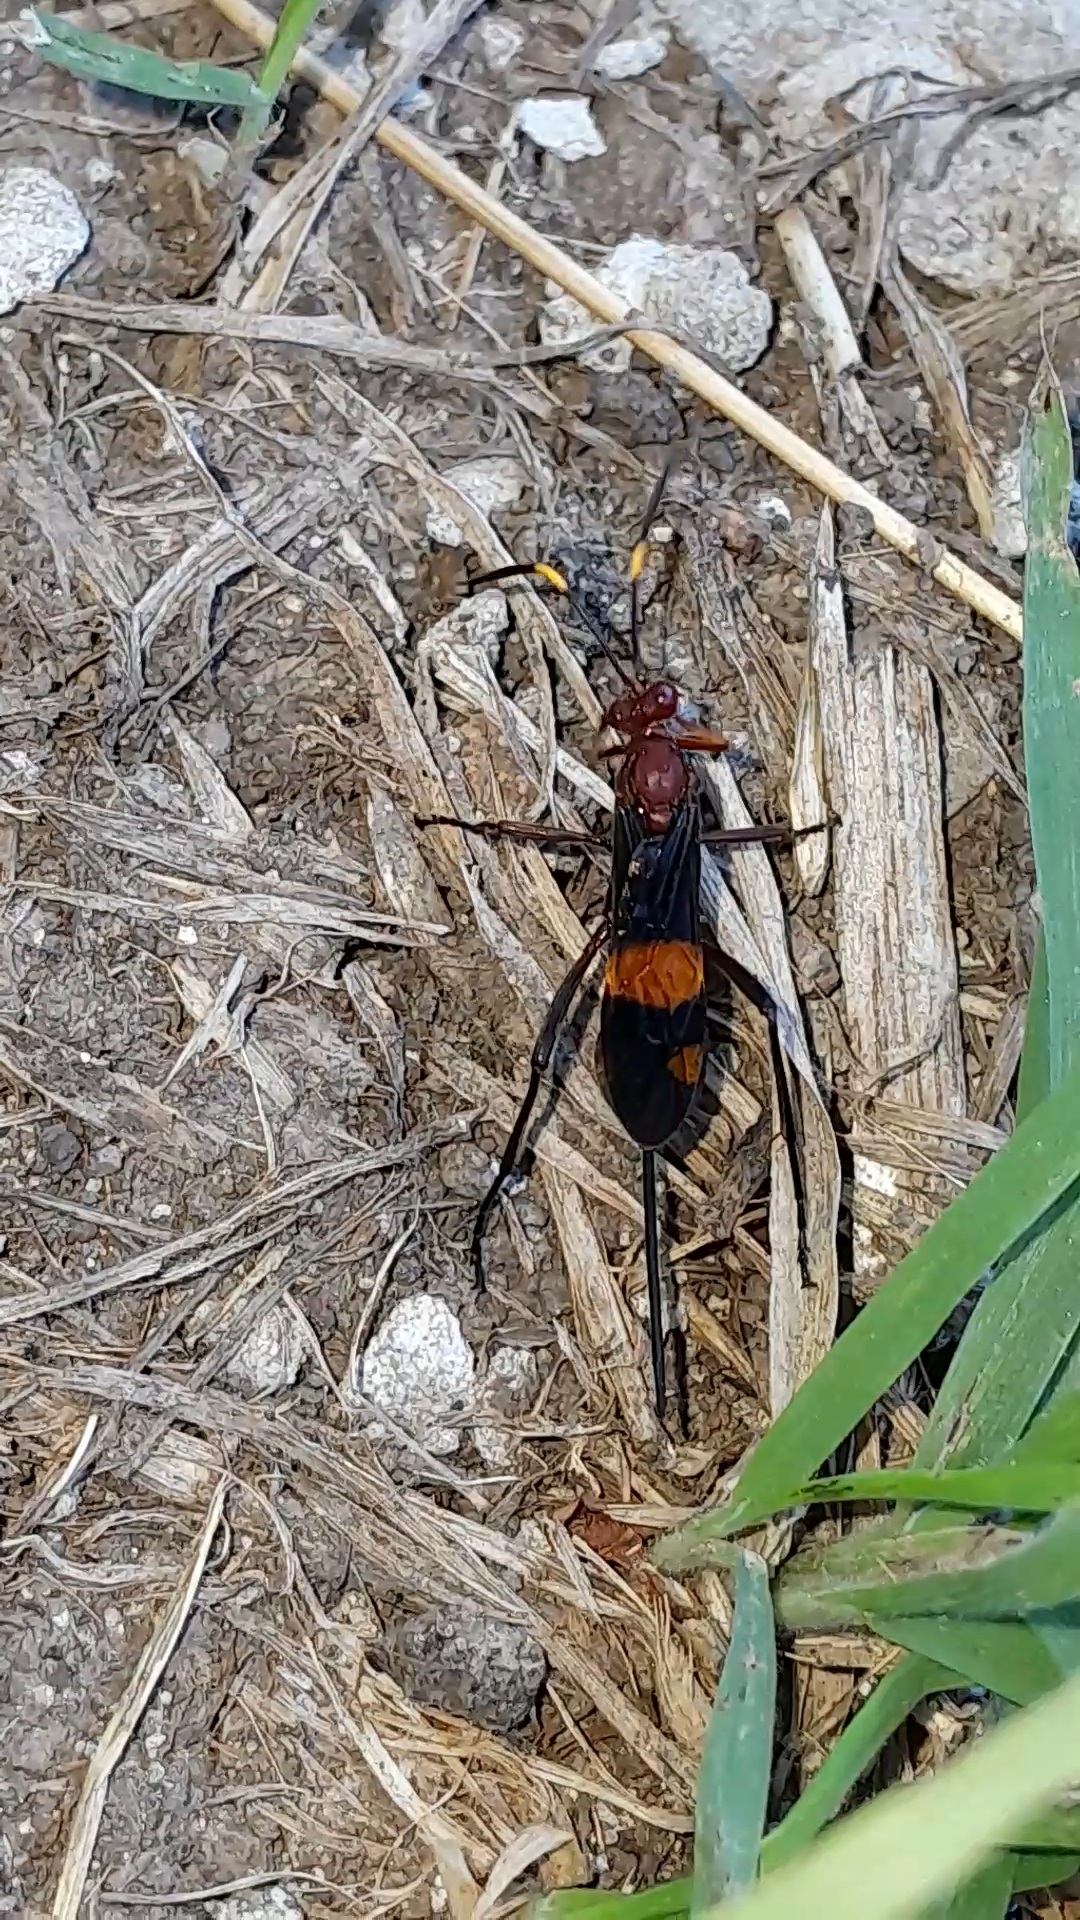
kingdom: Animalia
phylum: Arthropoda
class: Insecta
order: Hymenoptera
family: Ichneumonidae
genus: Compsocryptus
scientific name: Compsocryptus melanostigma
